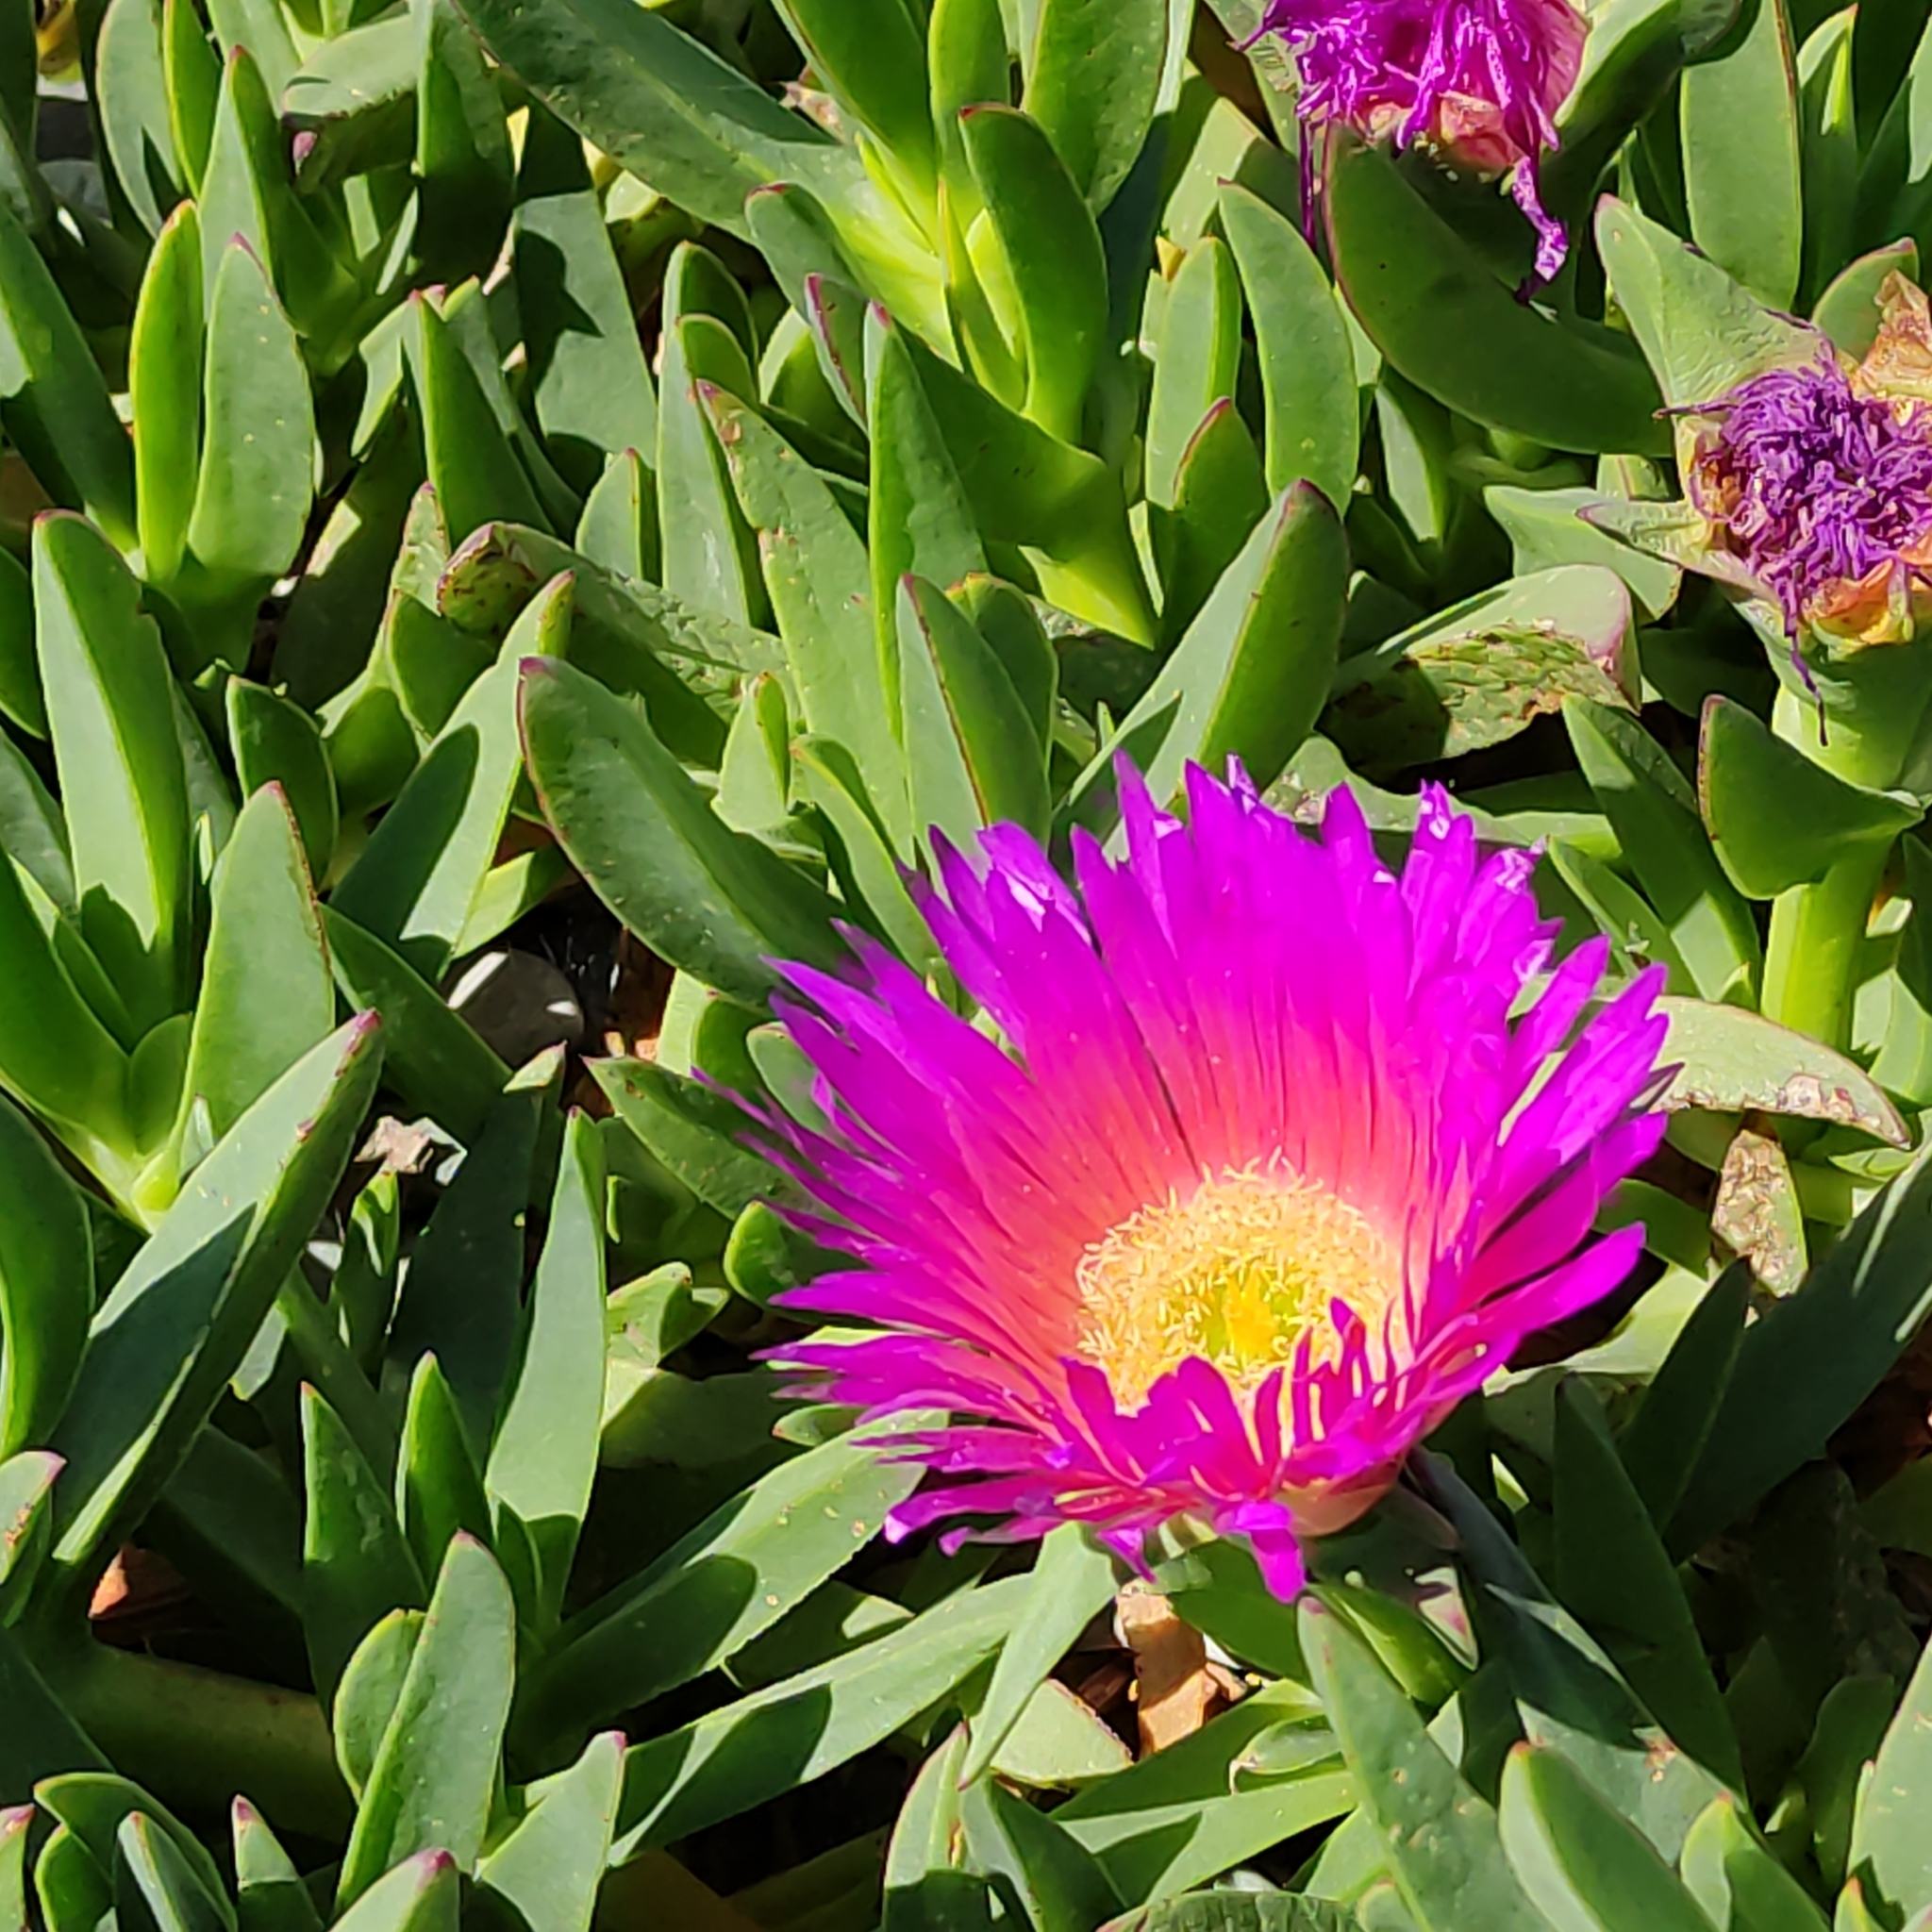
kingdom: Plantae
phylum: Tracheophyta
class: Magnoliopsida
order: Caryophyllales
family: Aizoaceae
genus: Carpobrotus
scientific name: Carpobrotus chilensis
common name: Sea fig
